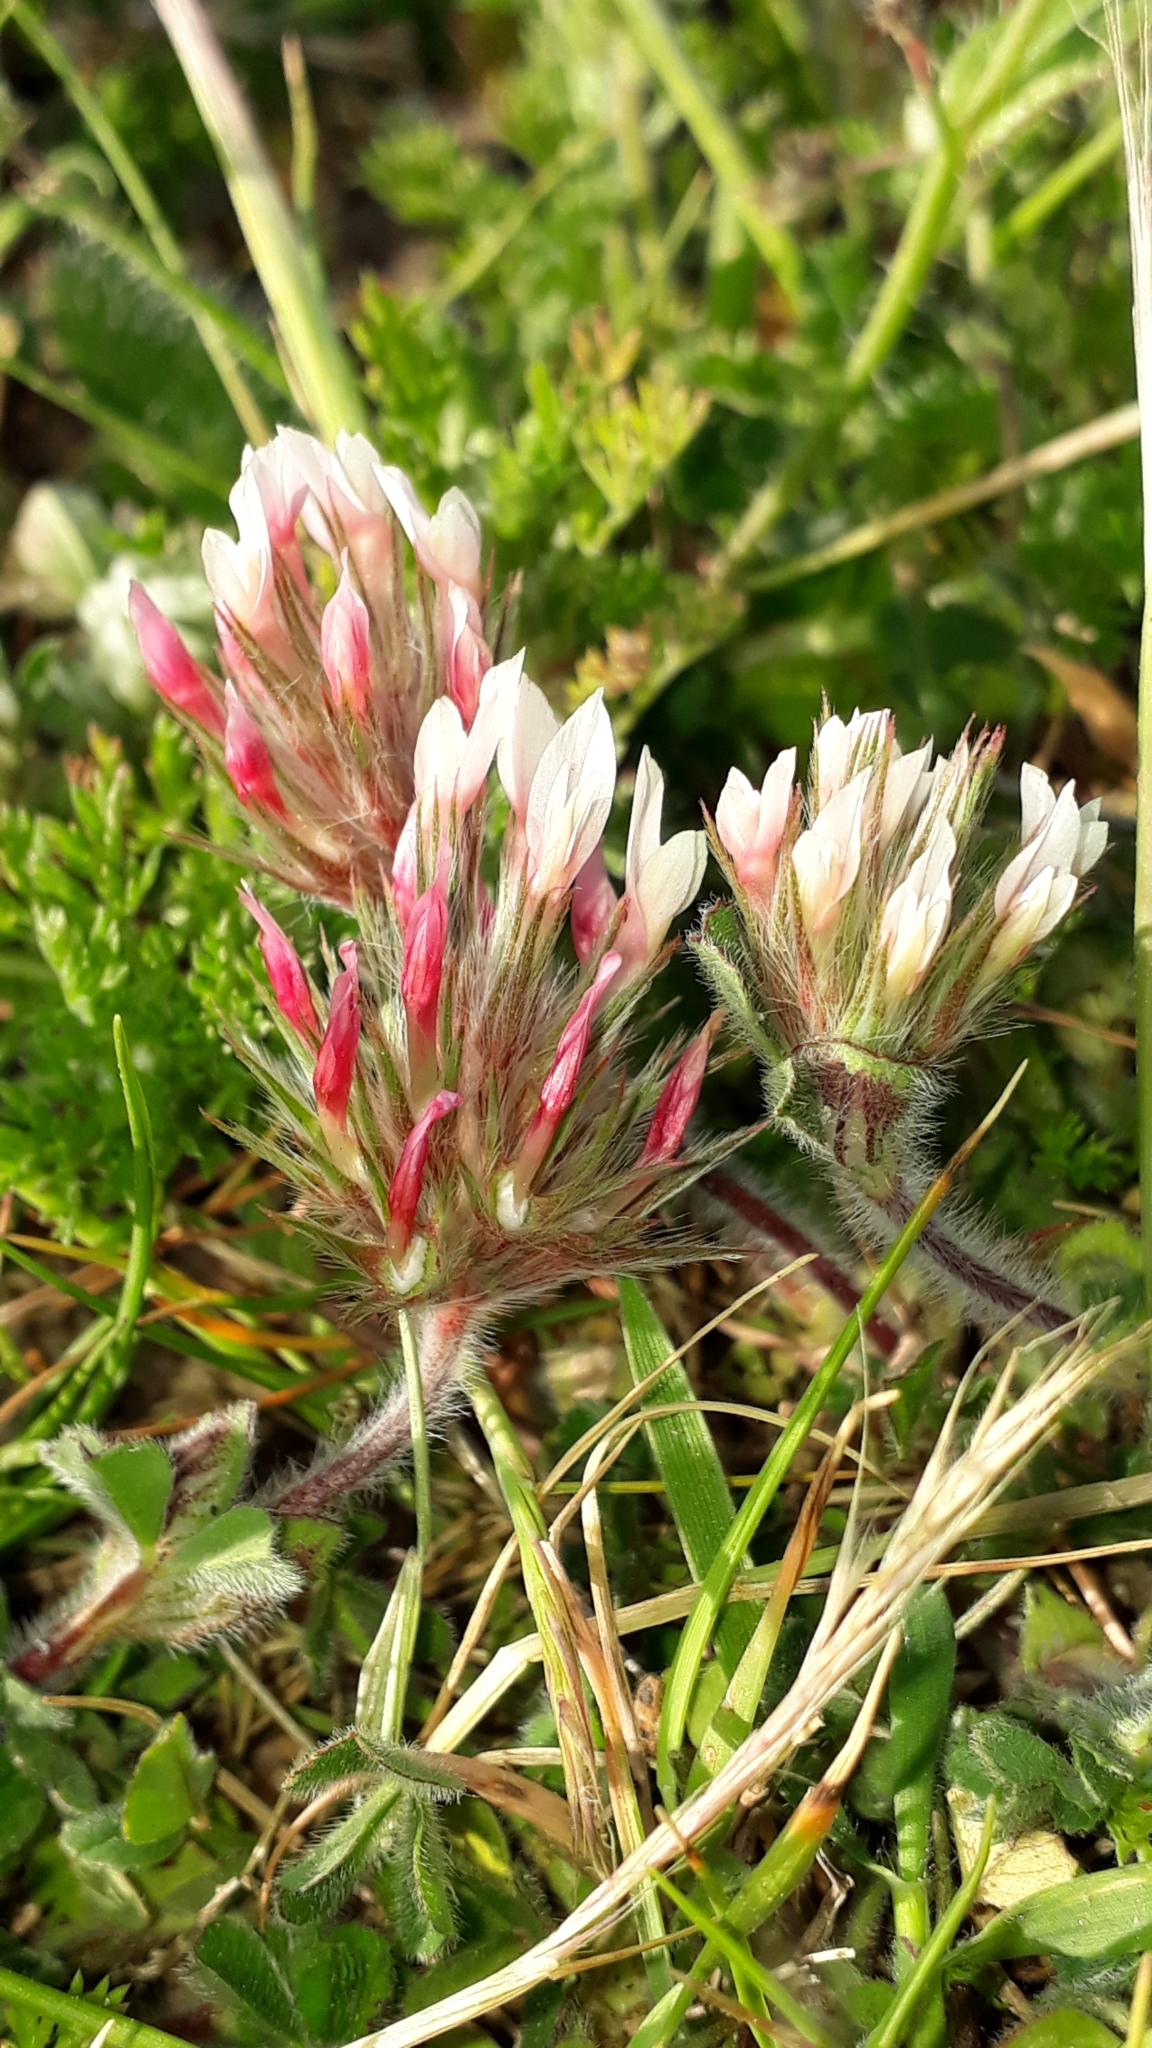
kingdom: Plantae
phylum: Tracheophyta
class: Magnoliopsida
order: Fabales
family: Fabaceae
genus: Trifolium
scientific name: Trifolium stellatum
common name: Starry clover
